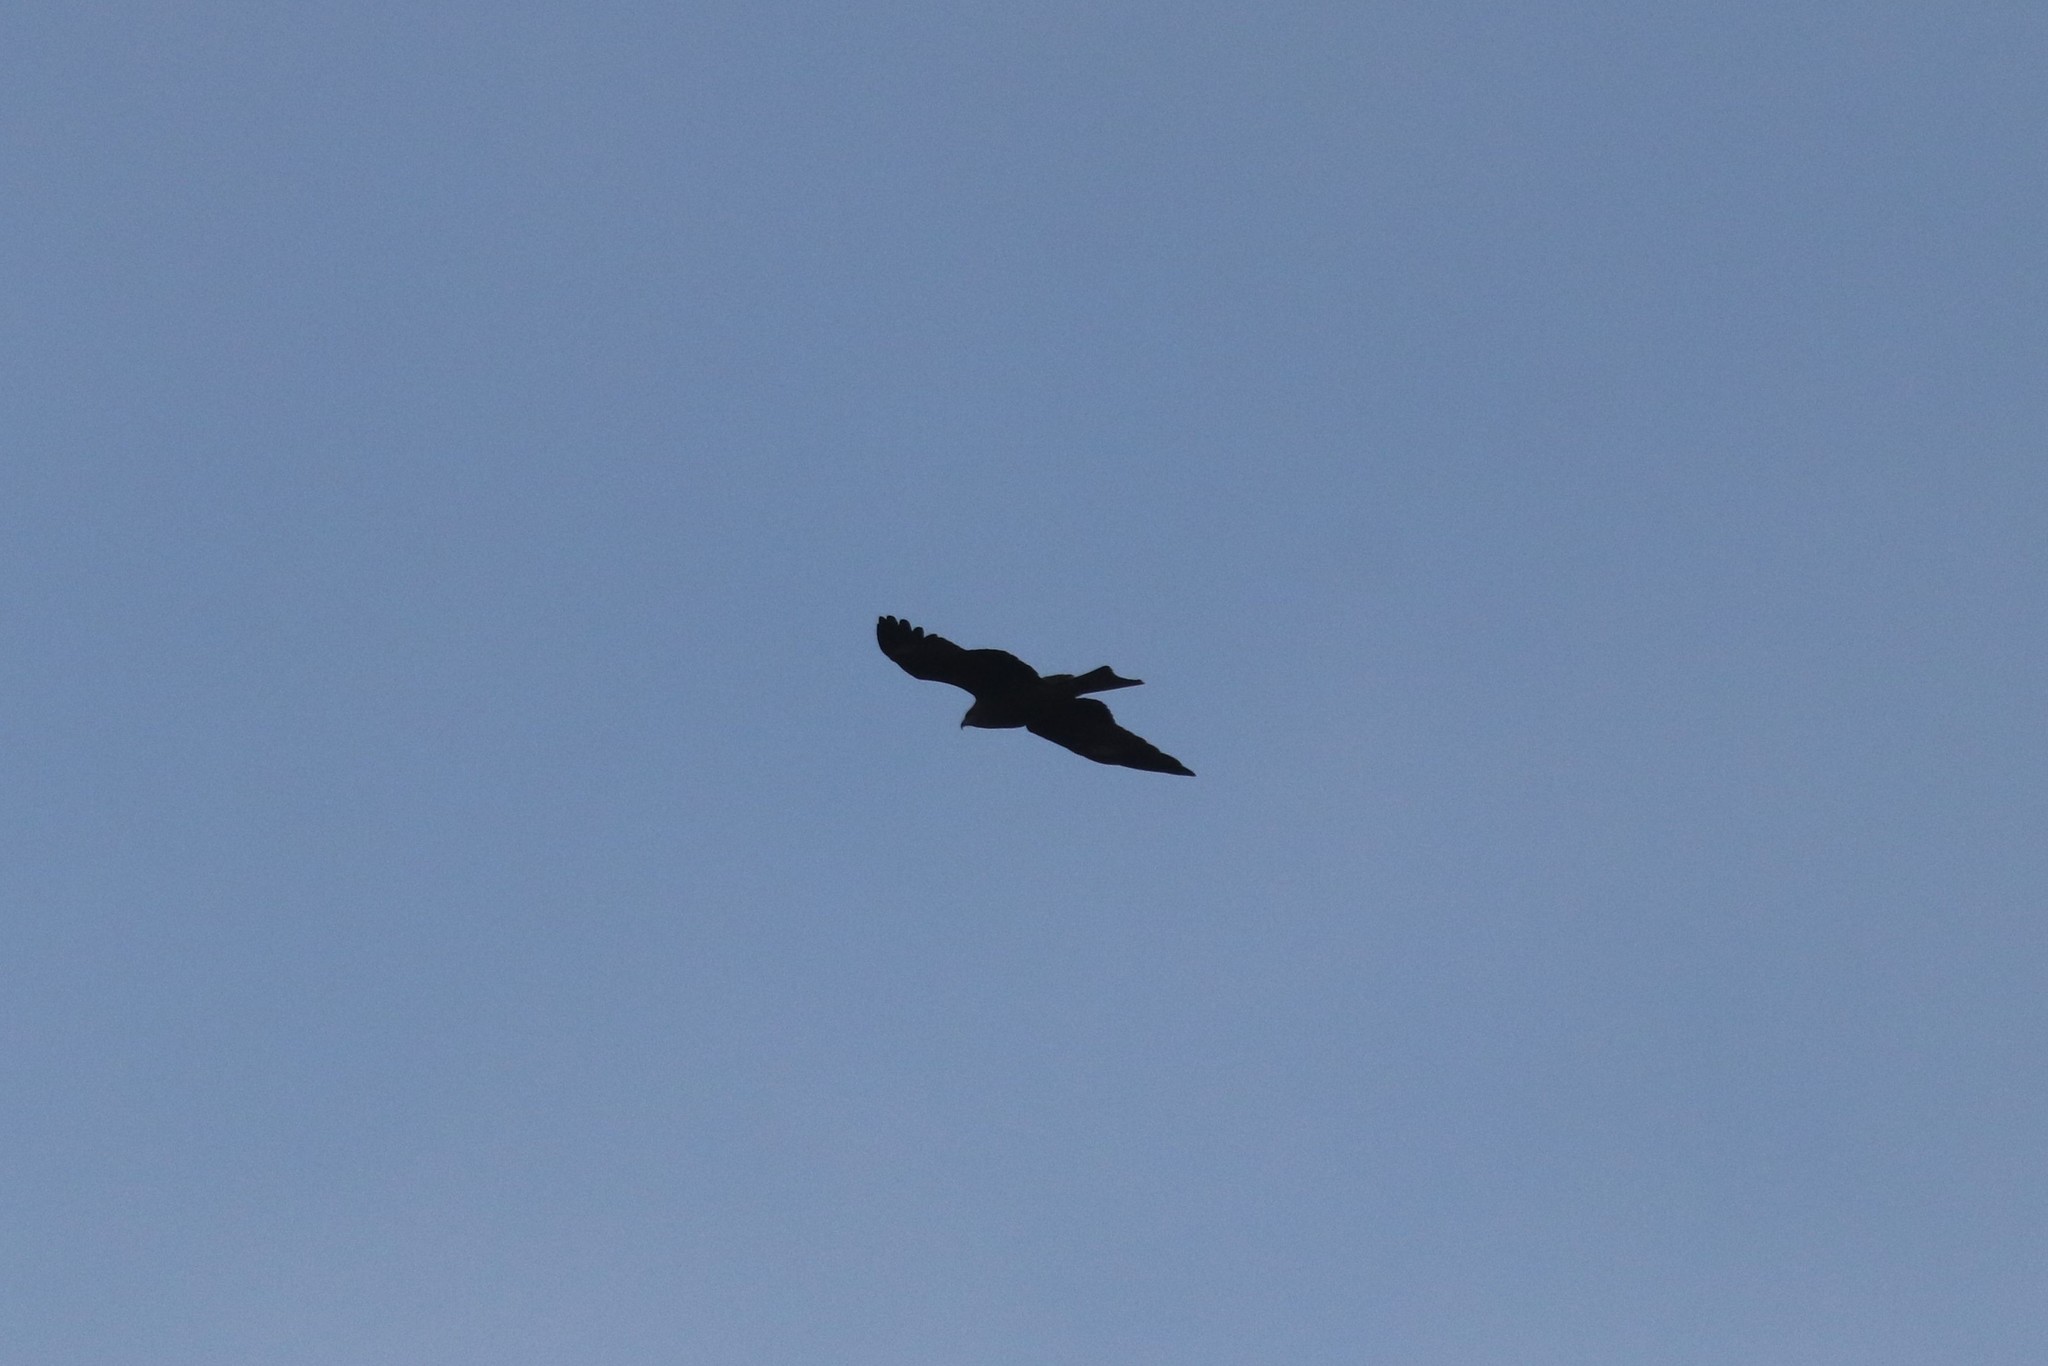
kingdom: Animalia
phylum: Chordata
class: Aves
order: Accipitriformes
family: Accipitridae
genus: Milvus
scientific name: Milvus migrans
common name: Black kite
